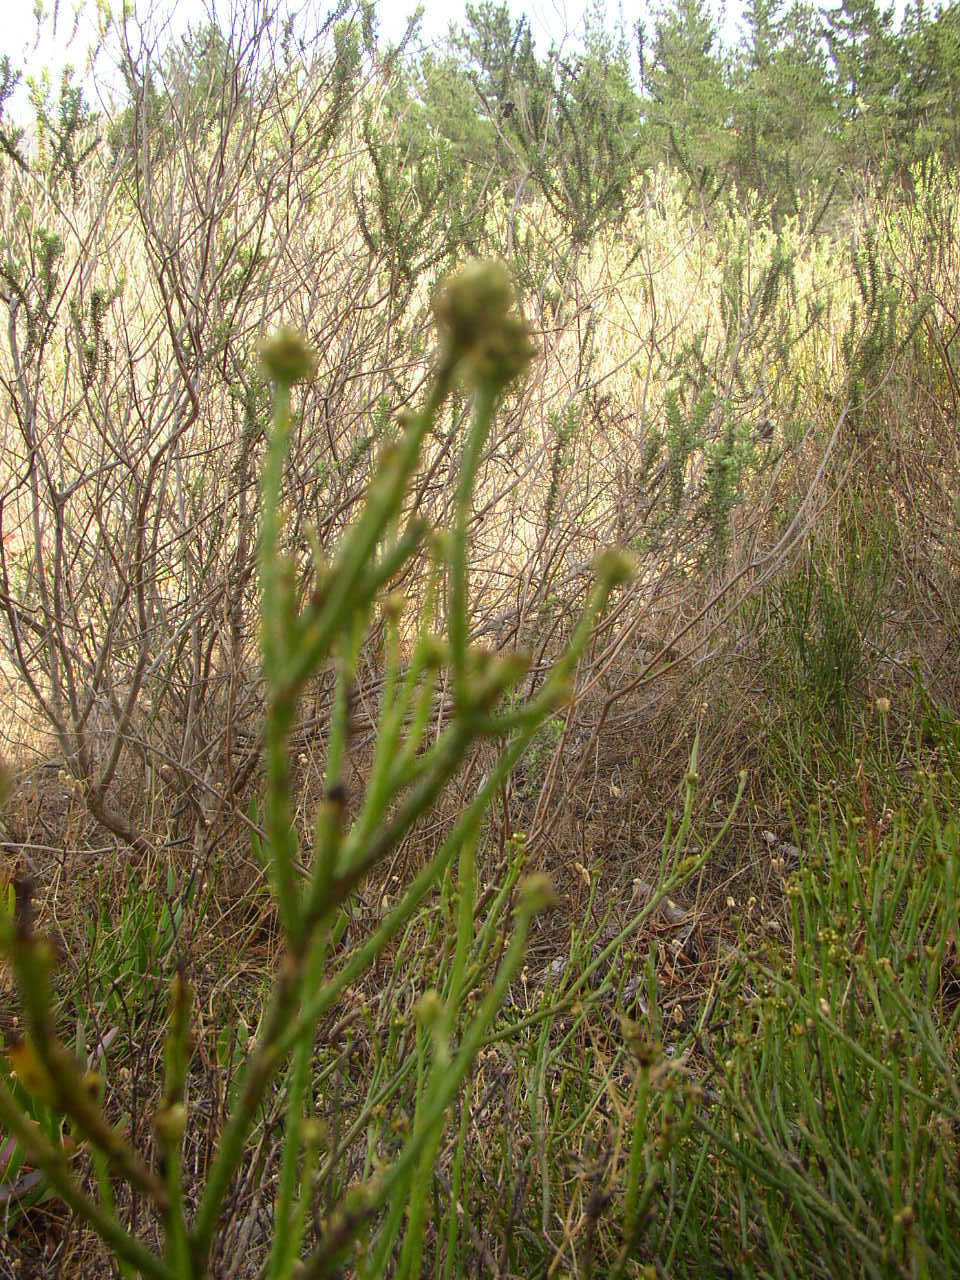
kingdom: Plantae
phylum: Tracheophyta
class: Magnoliopsida
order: Santalales
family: Thesiaceae
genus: Thesium
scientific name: Thesium capitatum
